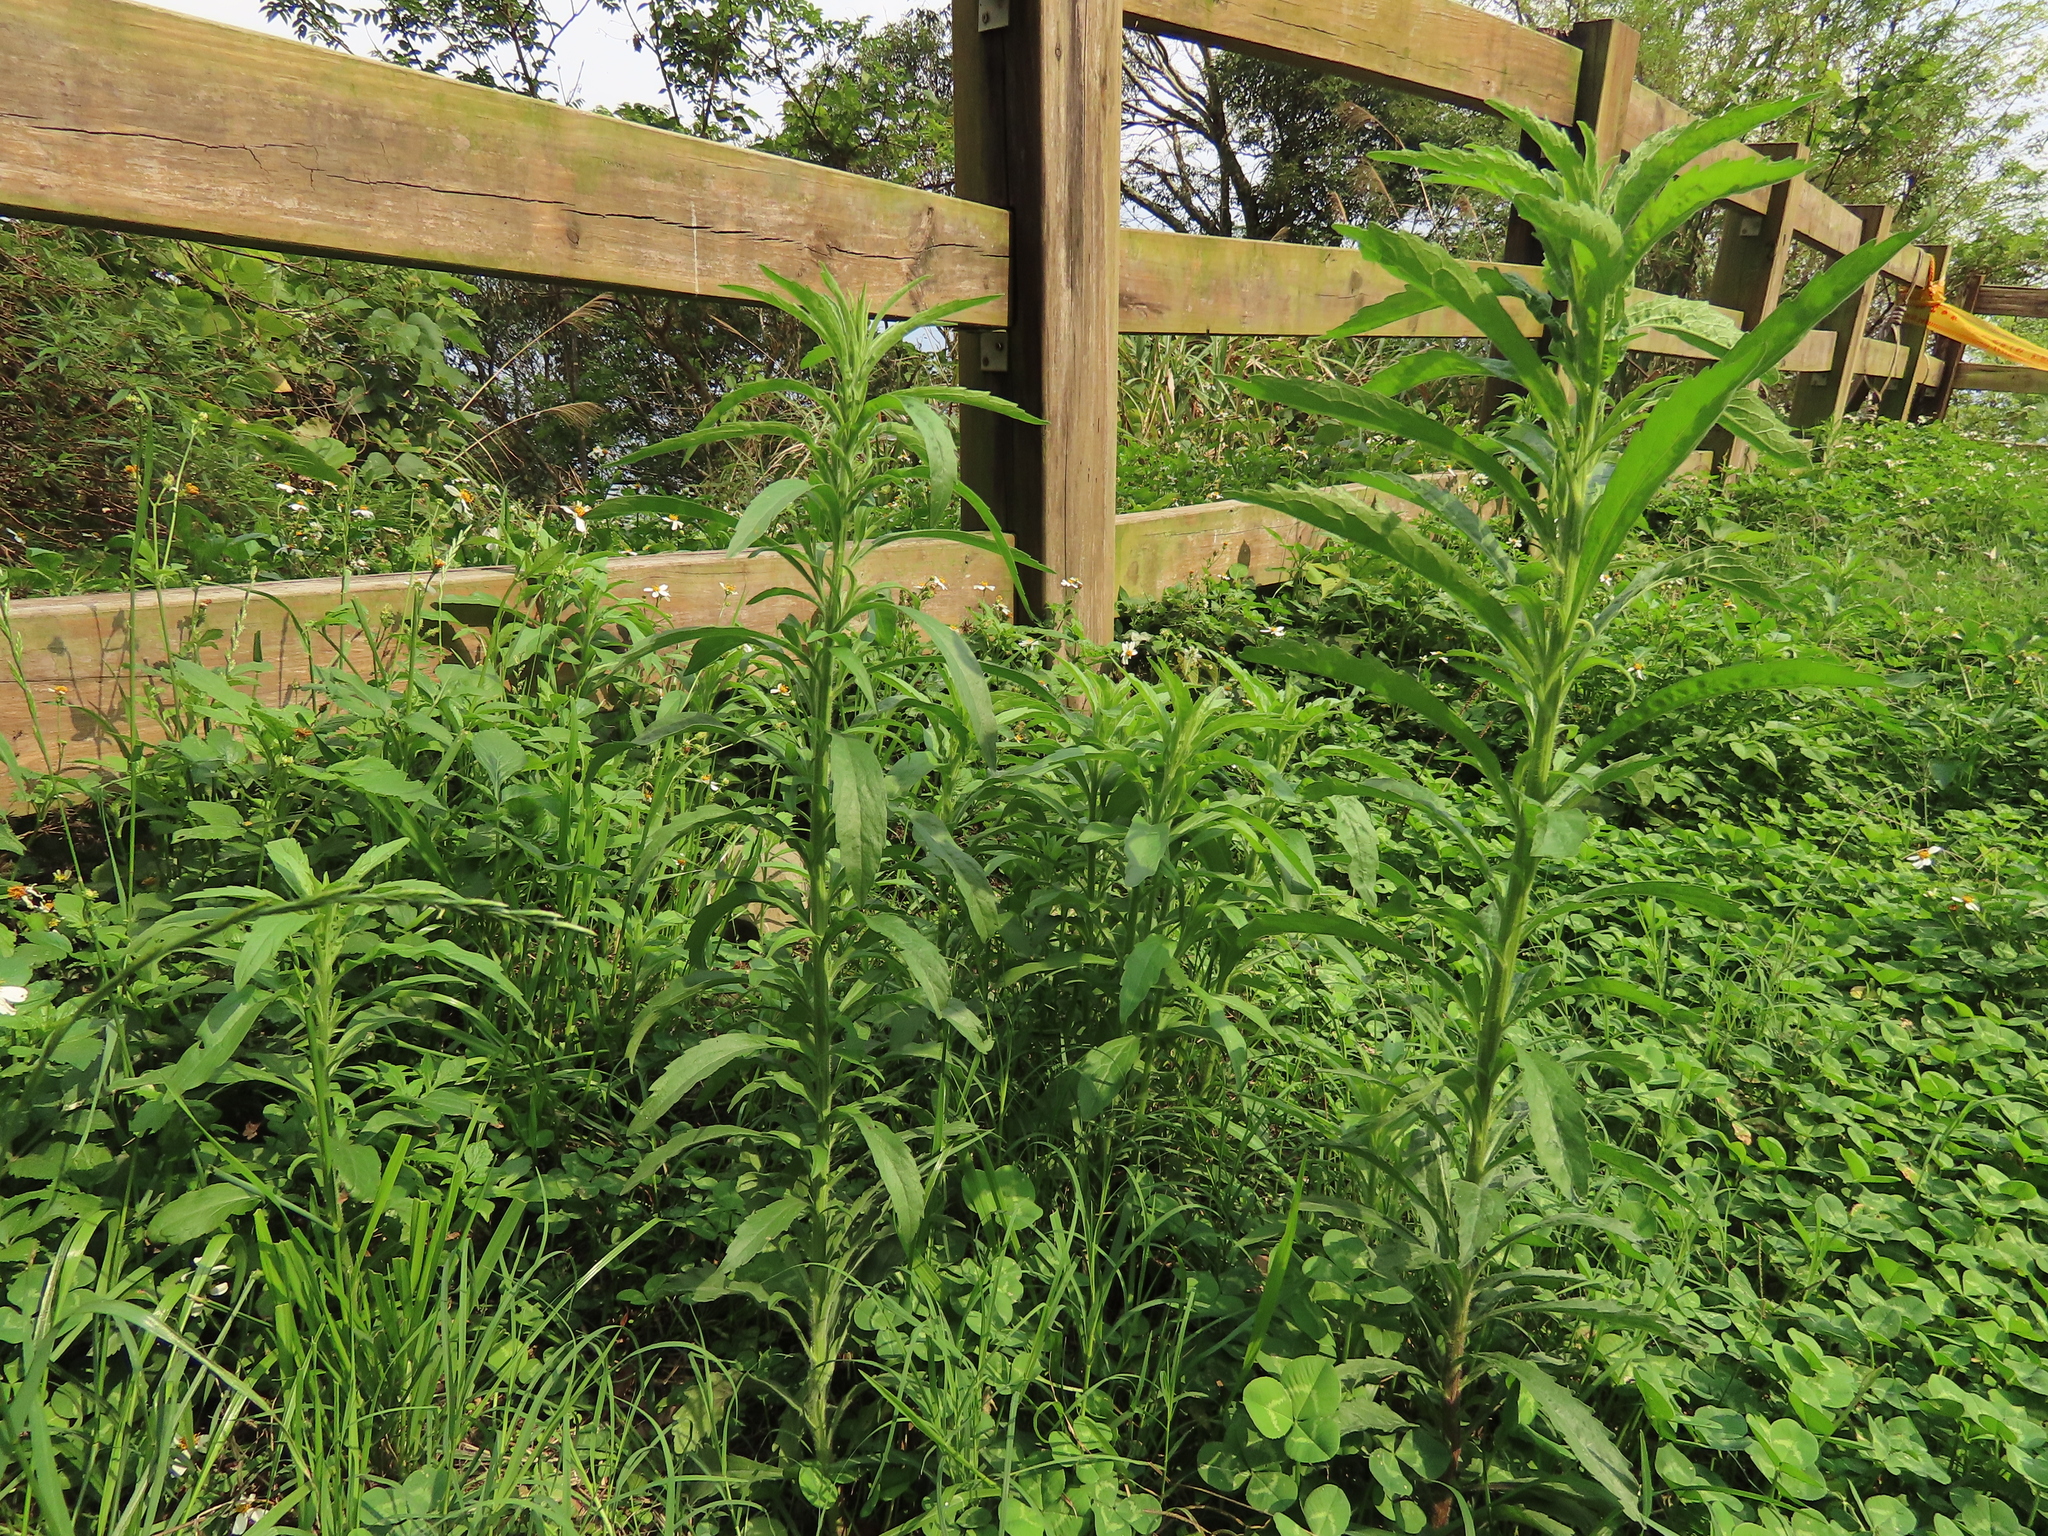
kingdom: Plantae
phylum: Tracheophyta
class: Magnoliopsida
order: Asterales
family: Asteraceae
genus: Erigeron
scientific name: Erigeron sumatrensis
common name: Daisy
